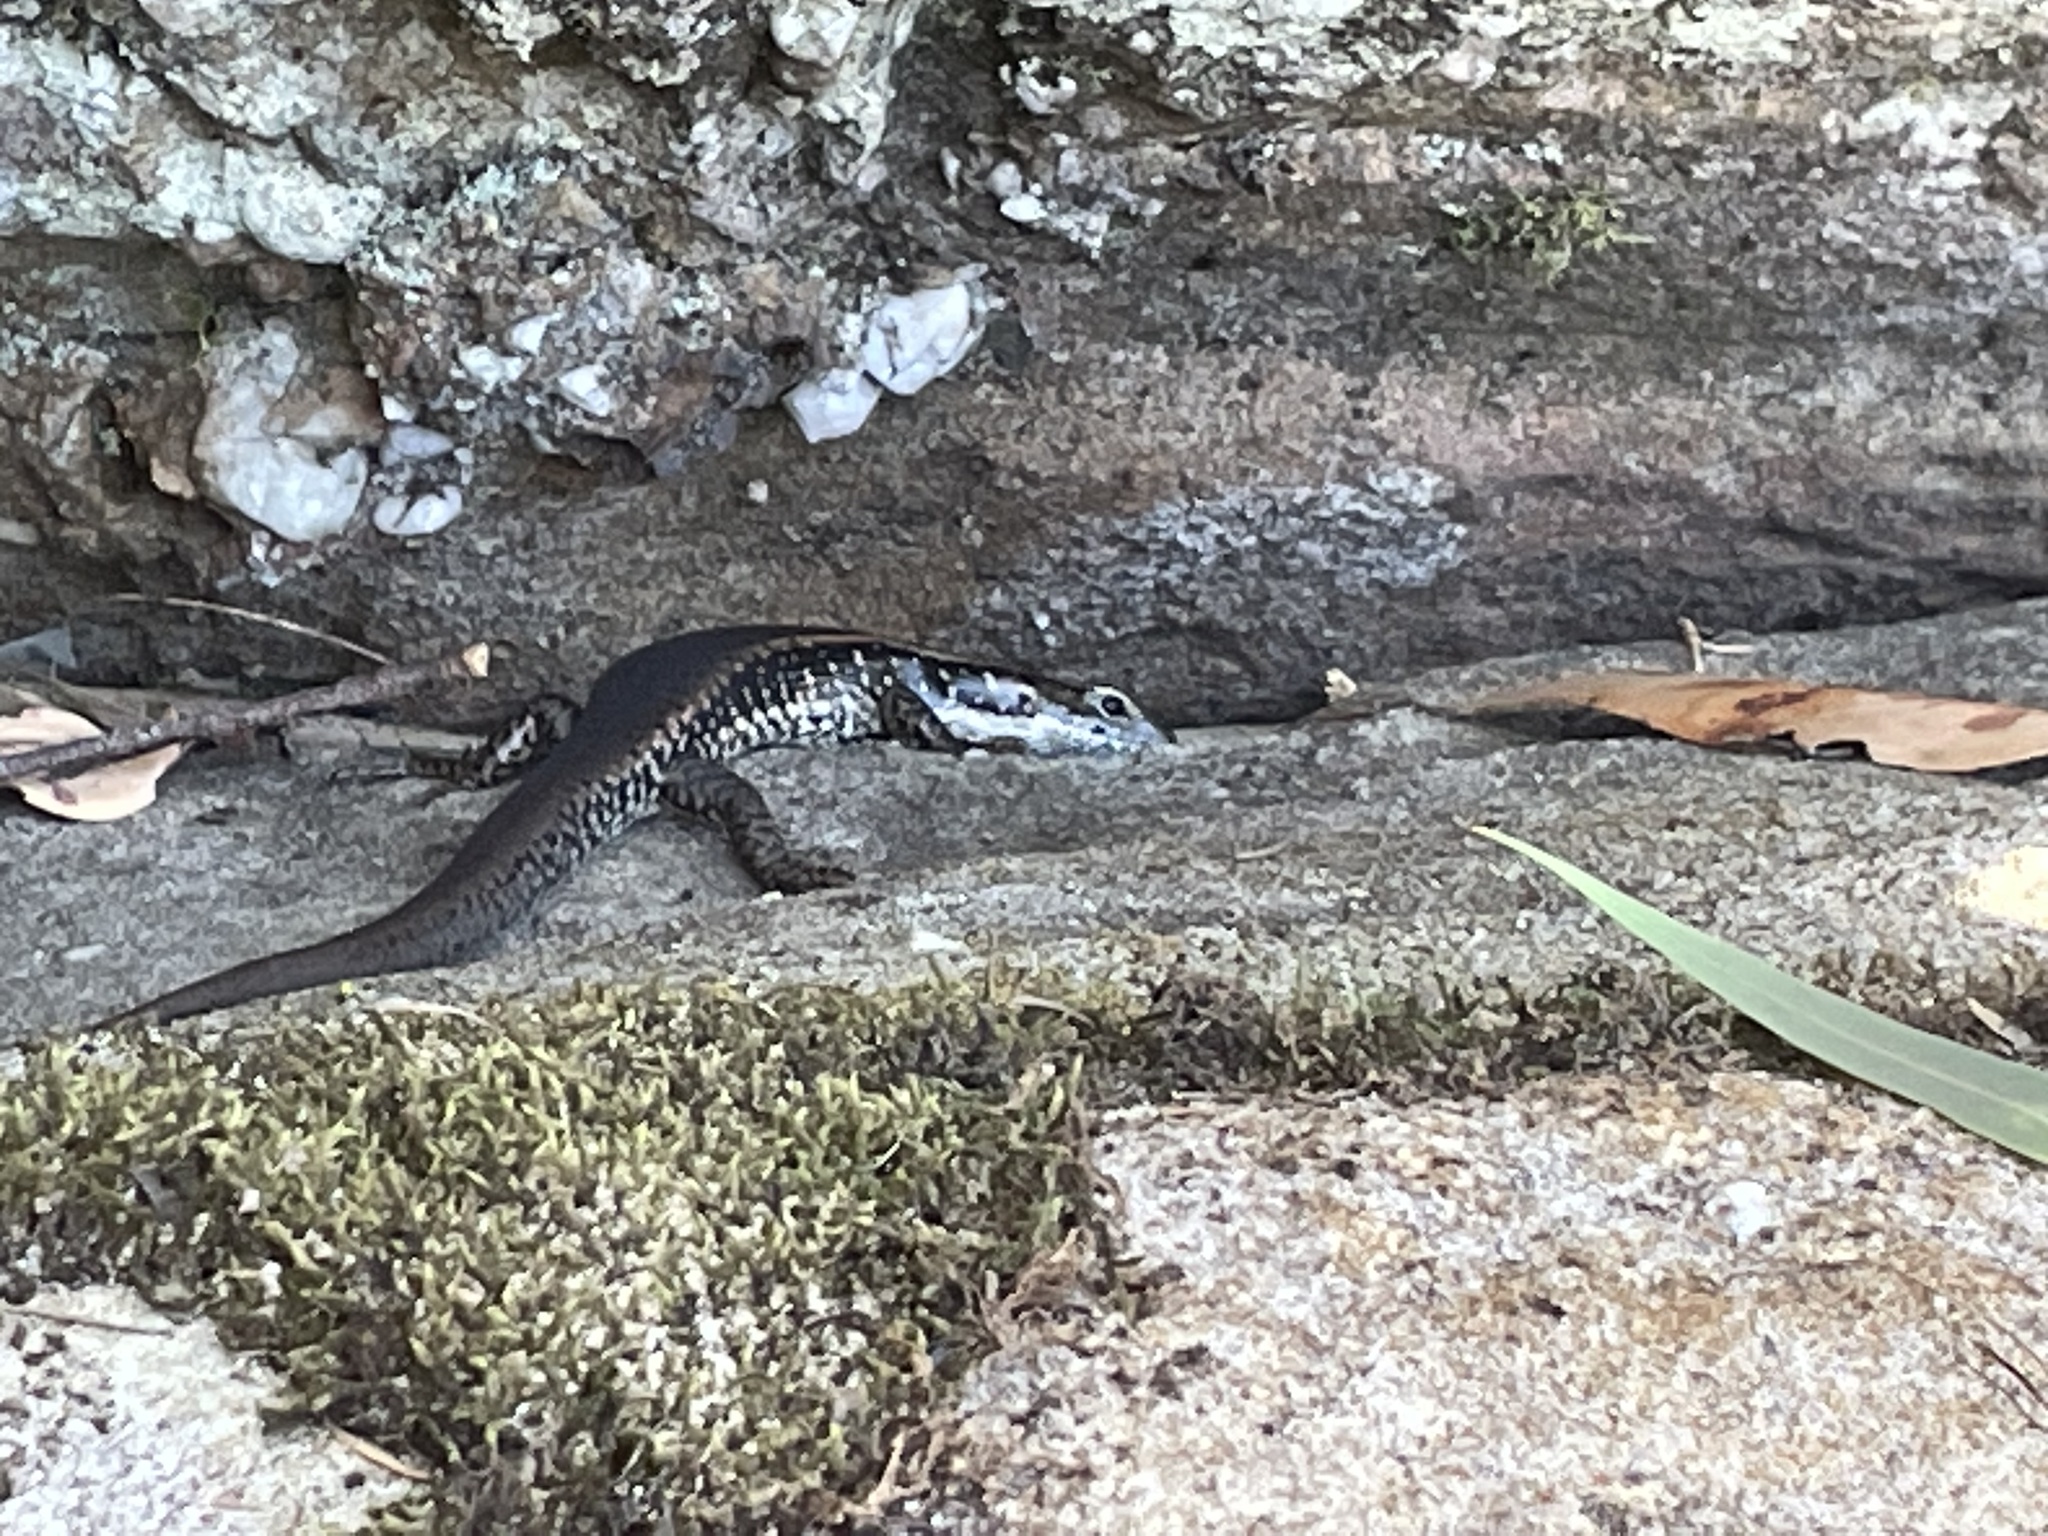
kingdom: Animalia
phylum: Chordata
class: Squamata
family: Scincidae
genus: Eulamprus
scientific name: Eulamprus quoyii
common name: Eastern water skink
